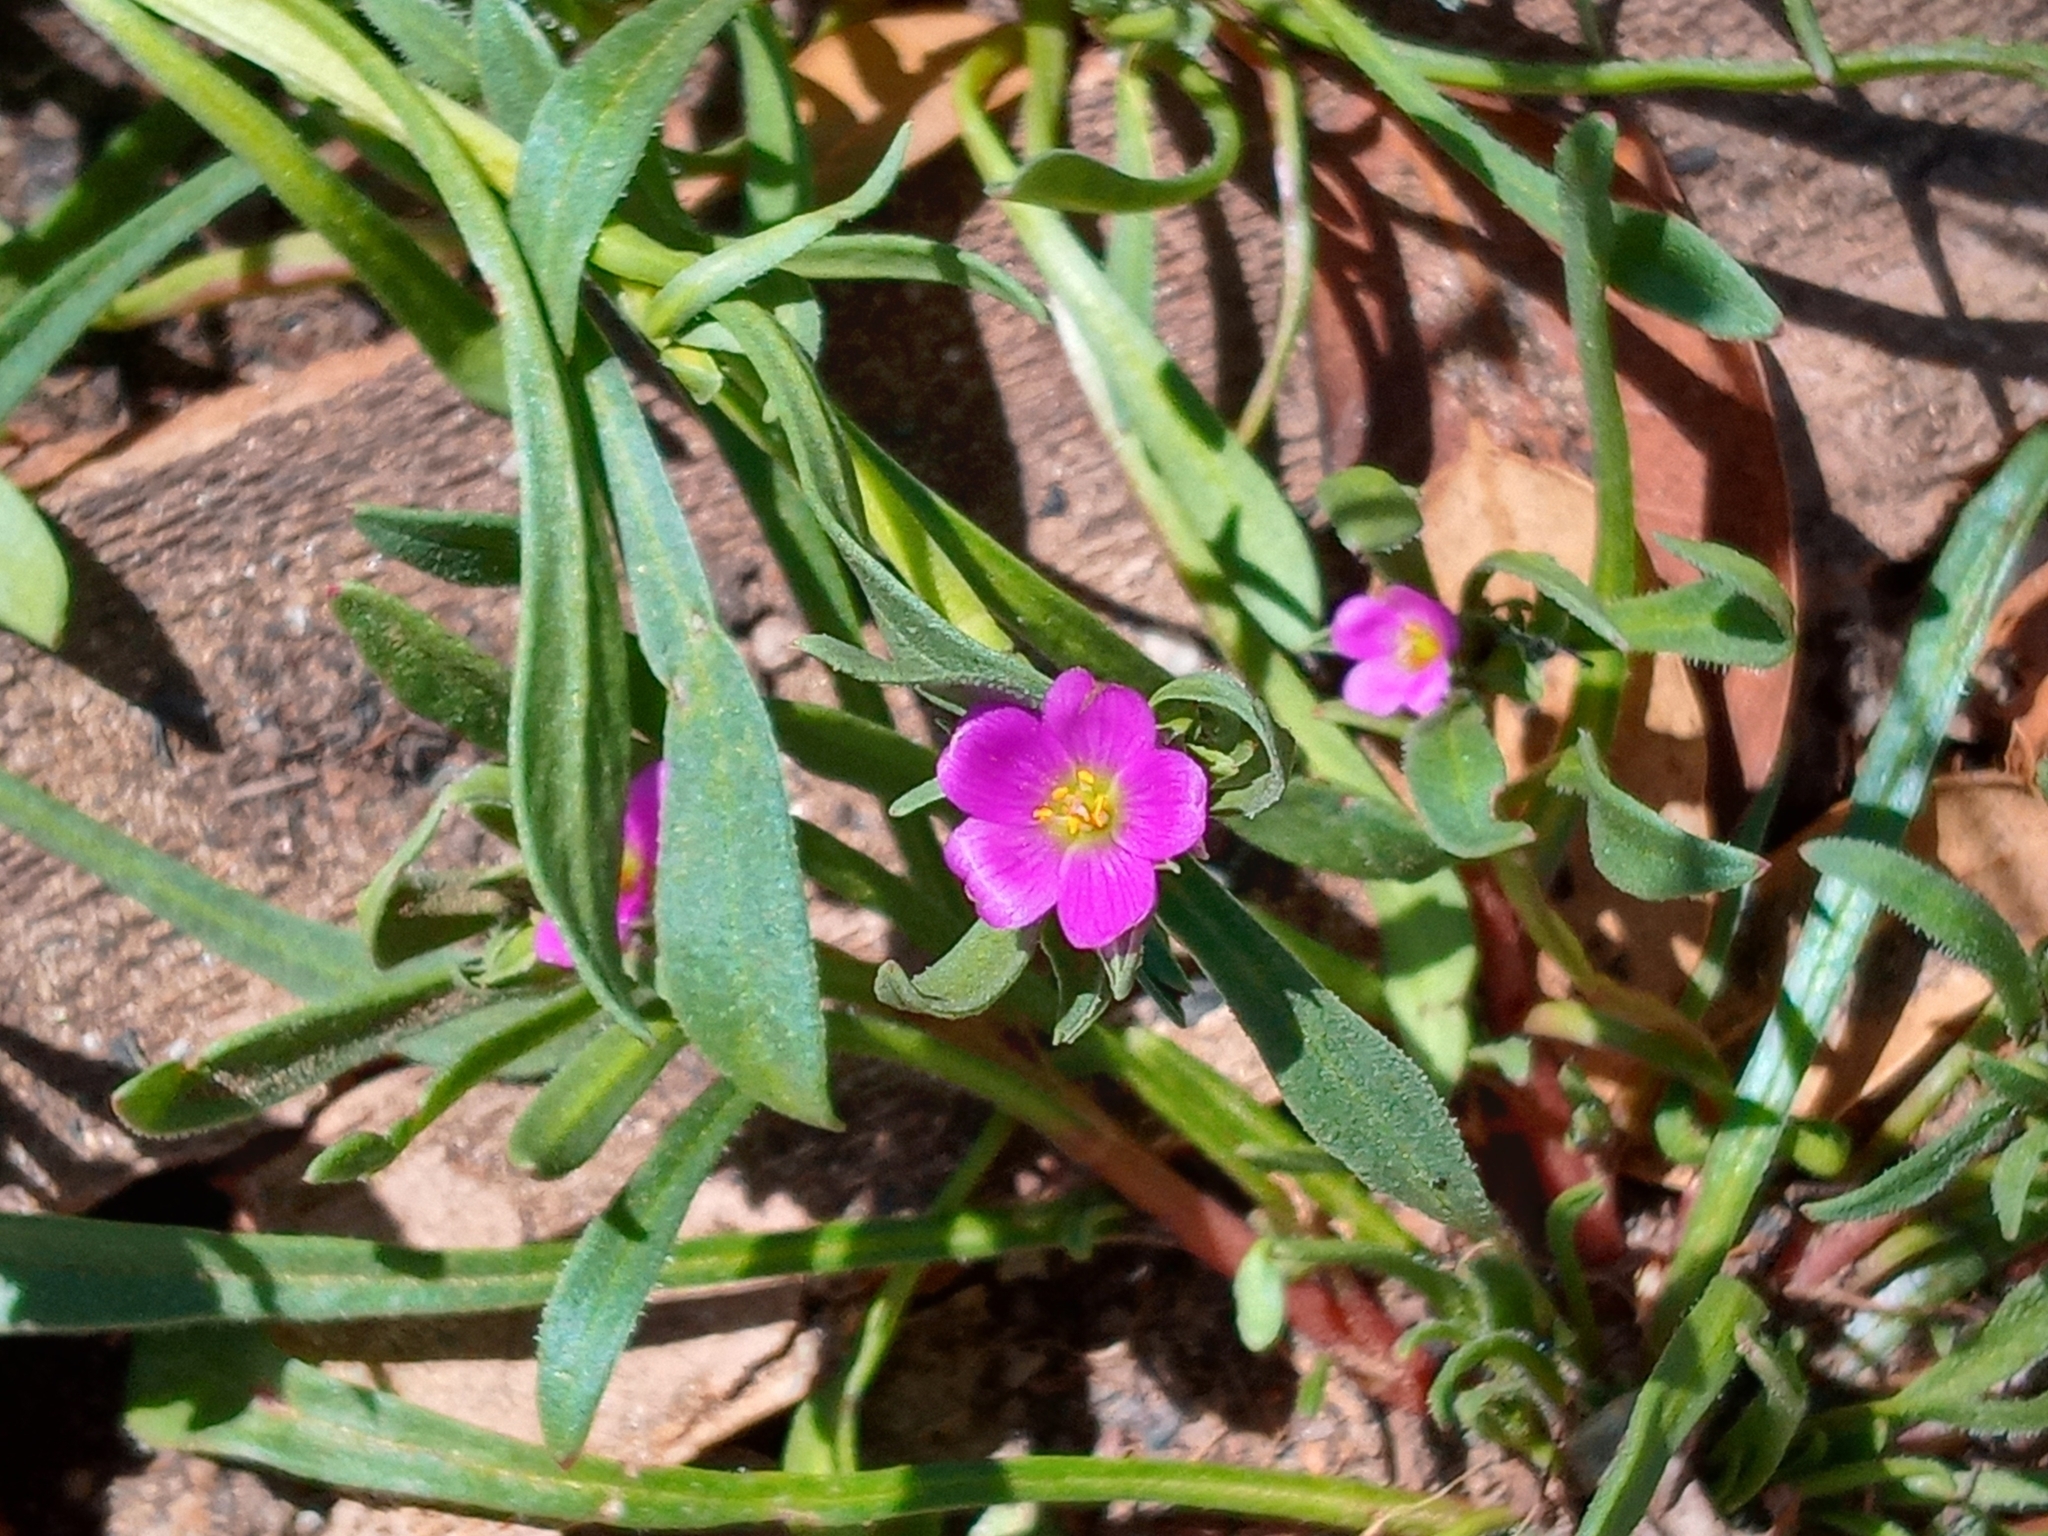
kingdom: Plantae
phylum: Tracheophyta
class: Magnoliopsida
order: Caryophyllales
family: Montiaceae
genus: Calandrinia
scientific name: Calandrinia menziesii
